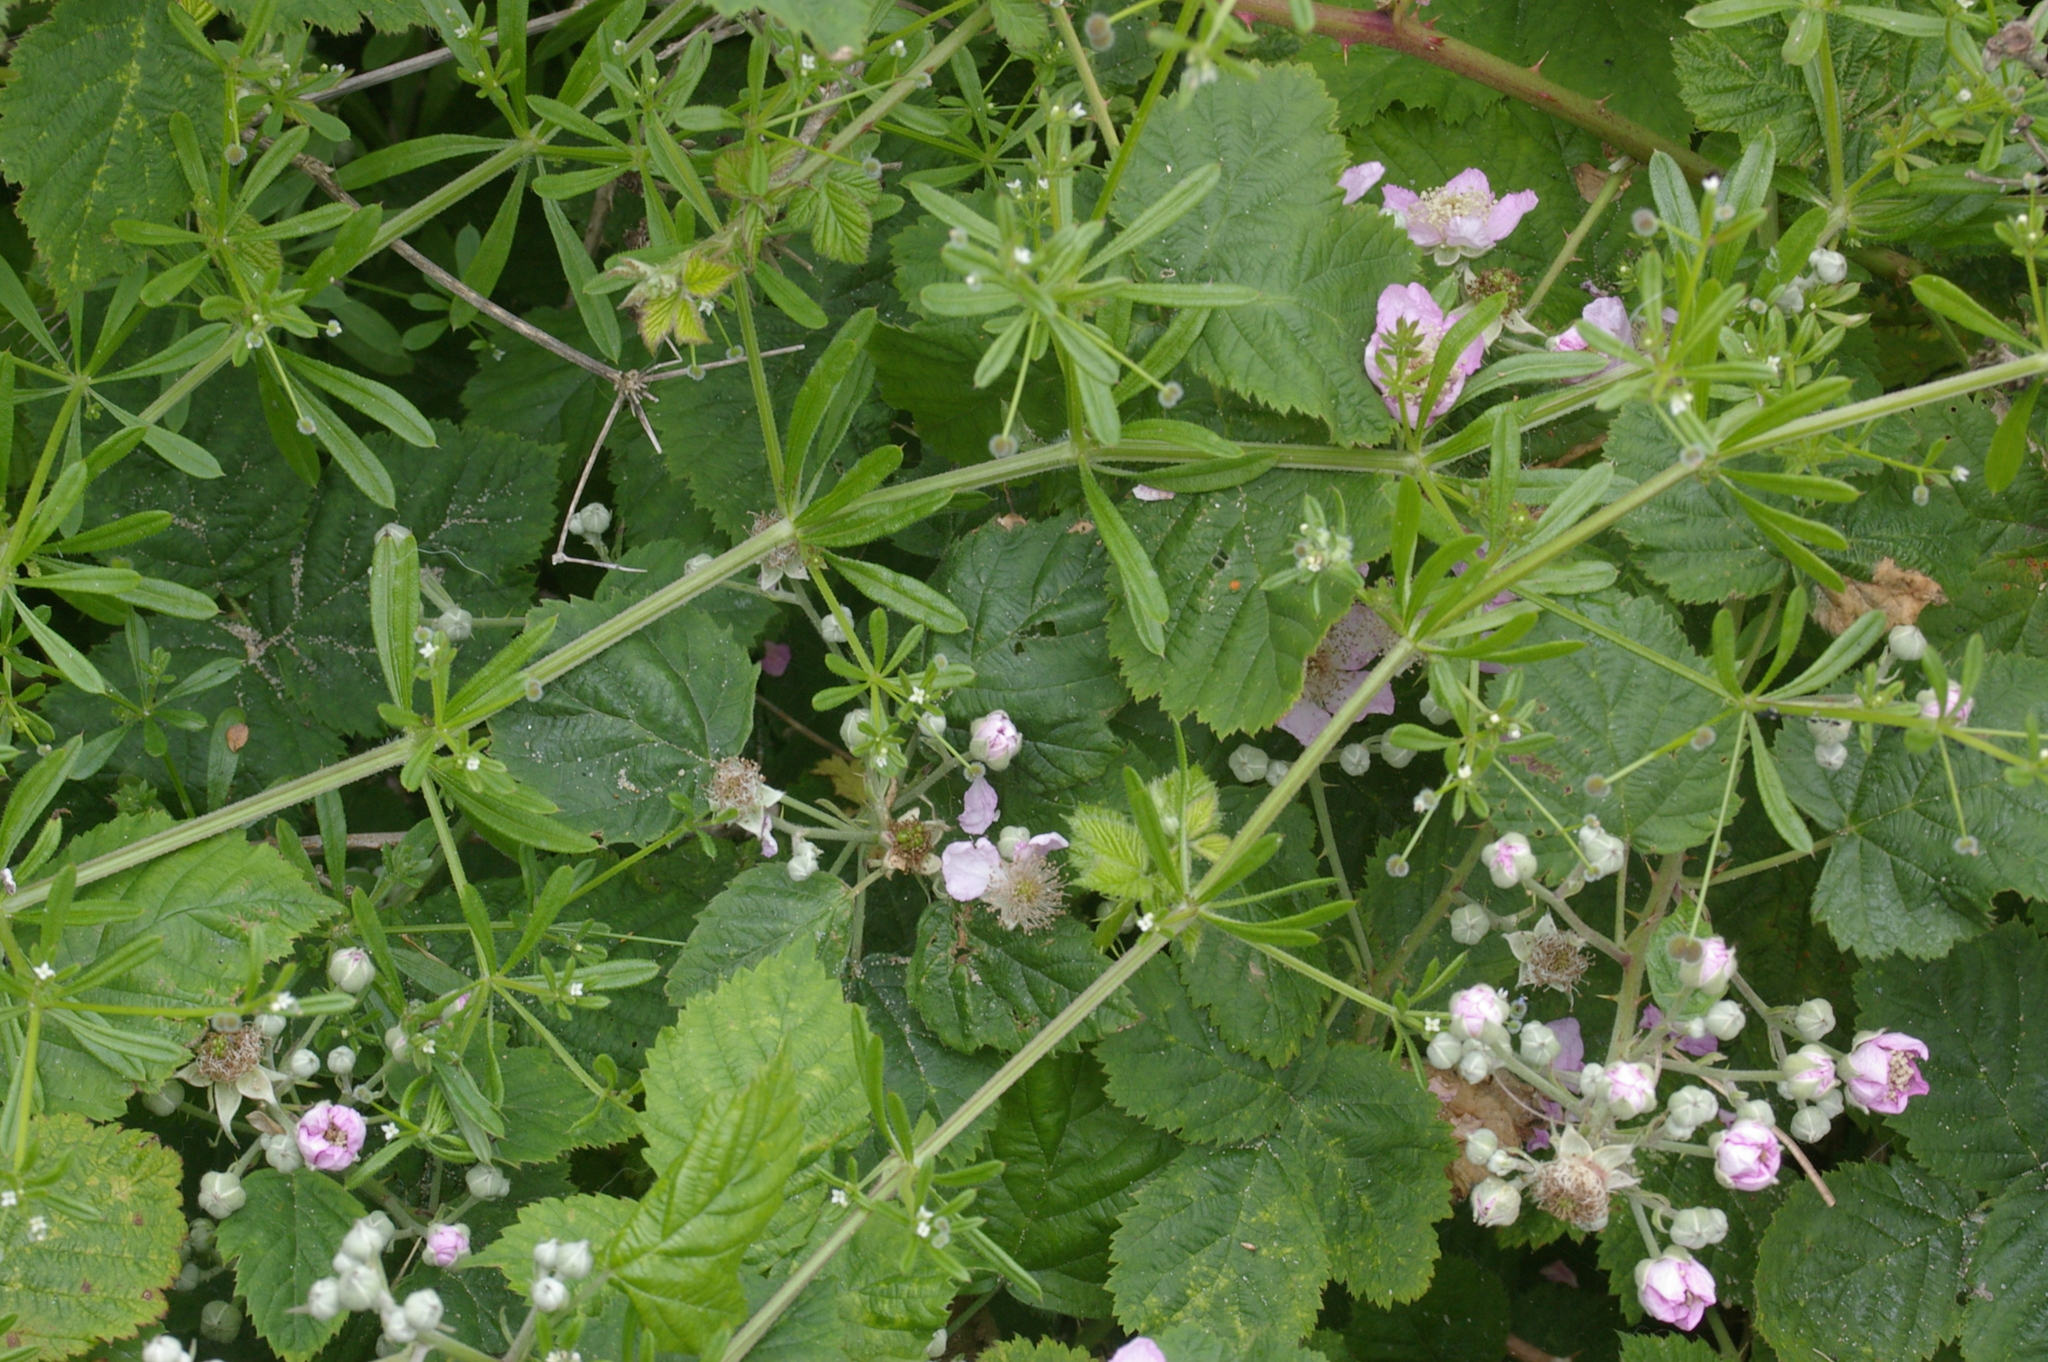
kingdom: Plantae
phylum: Tracheophyta
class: Magnoliopsida
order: Gentianales
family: Rubiaceae
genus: Galium
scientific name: Galium aparine
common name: Cleavers
